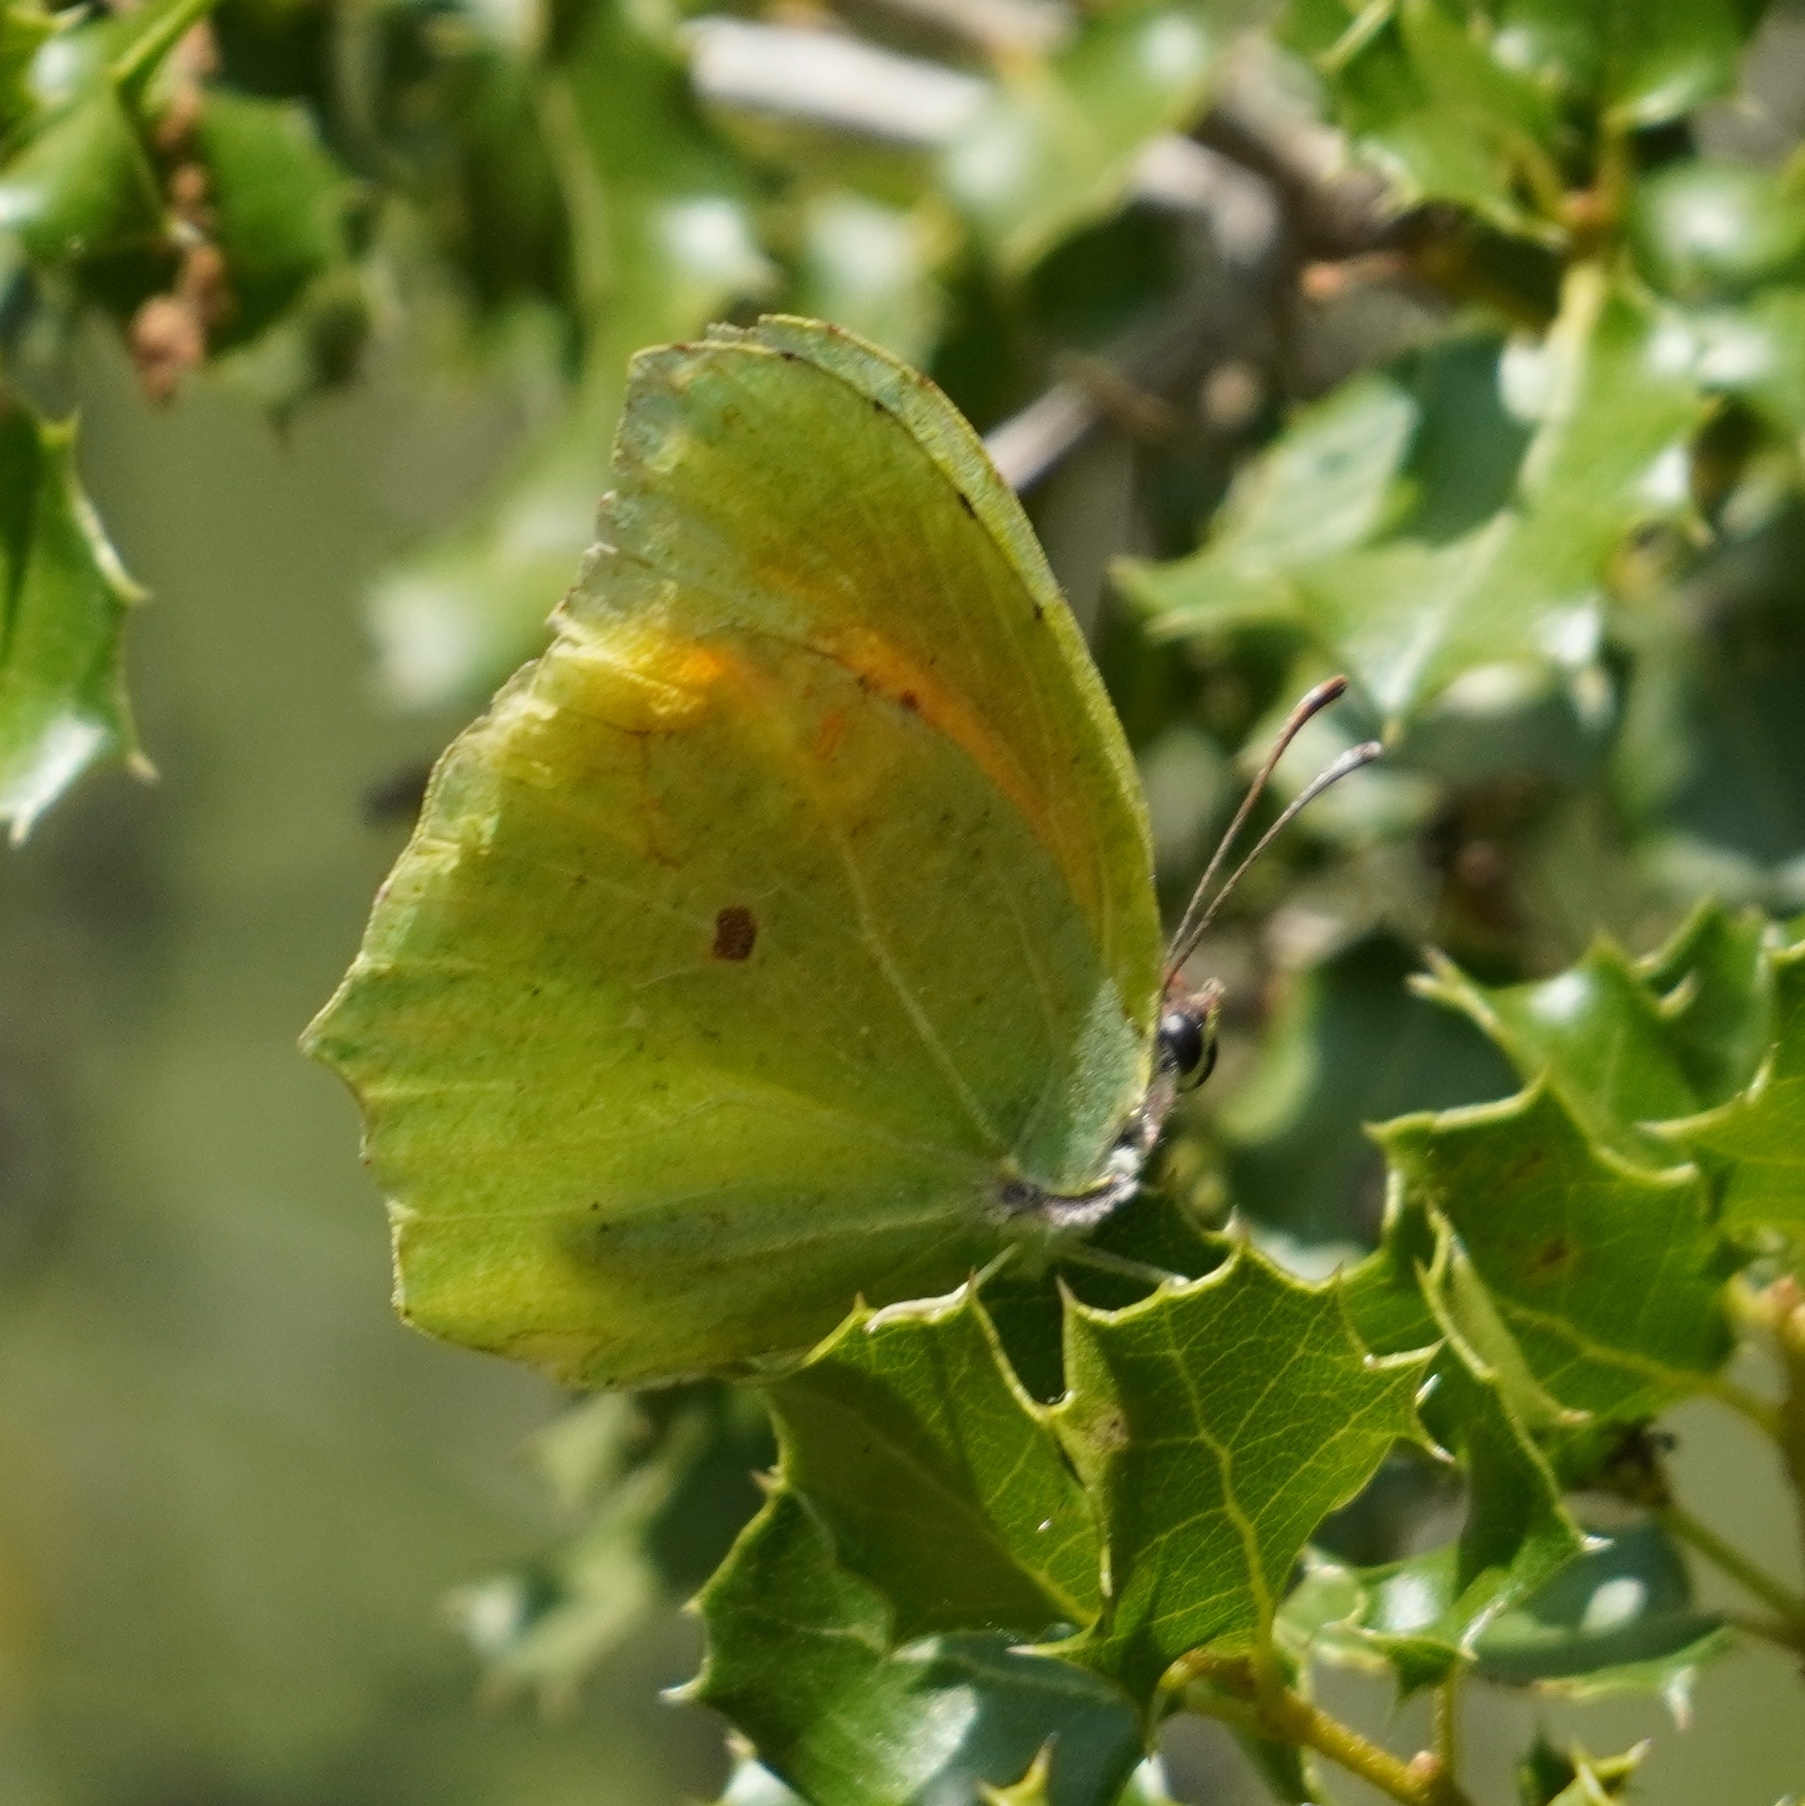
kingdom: Animalia
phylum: Arthropoda
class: Insecta
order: Lepidoptera
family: Pieridae
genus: Gonepteryx
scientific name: Gonepteryx cleopatra
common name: Cleopatra
